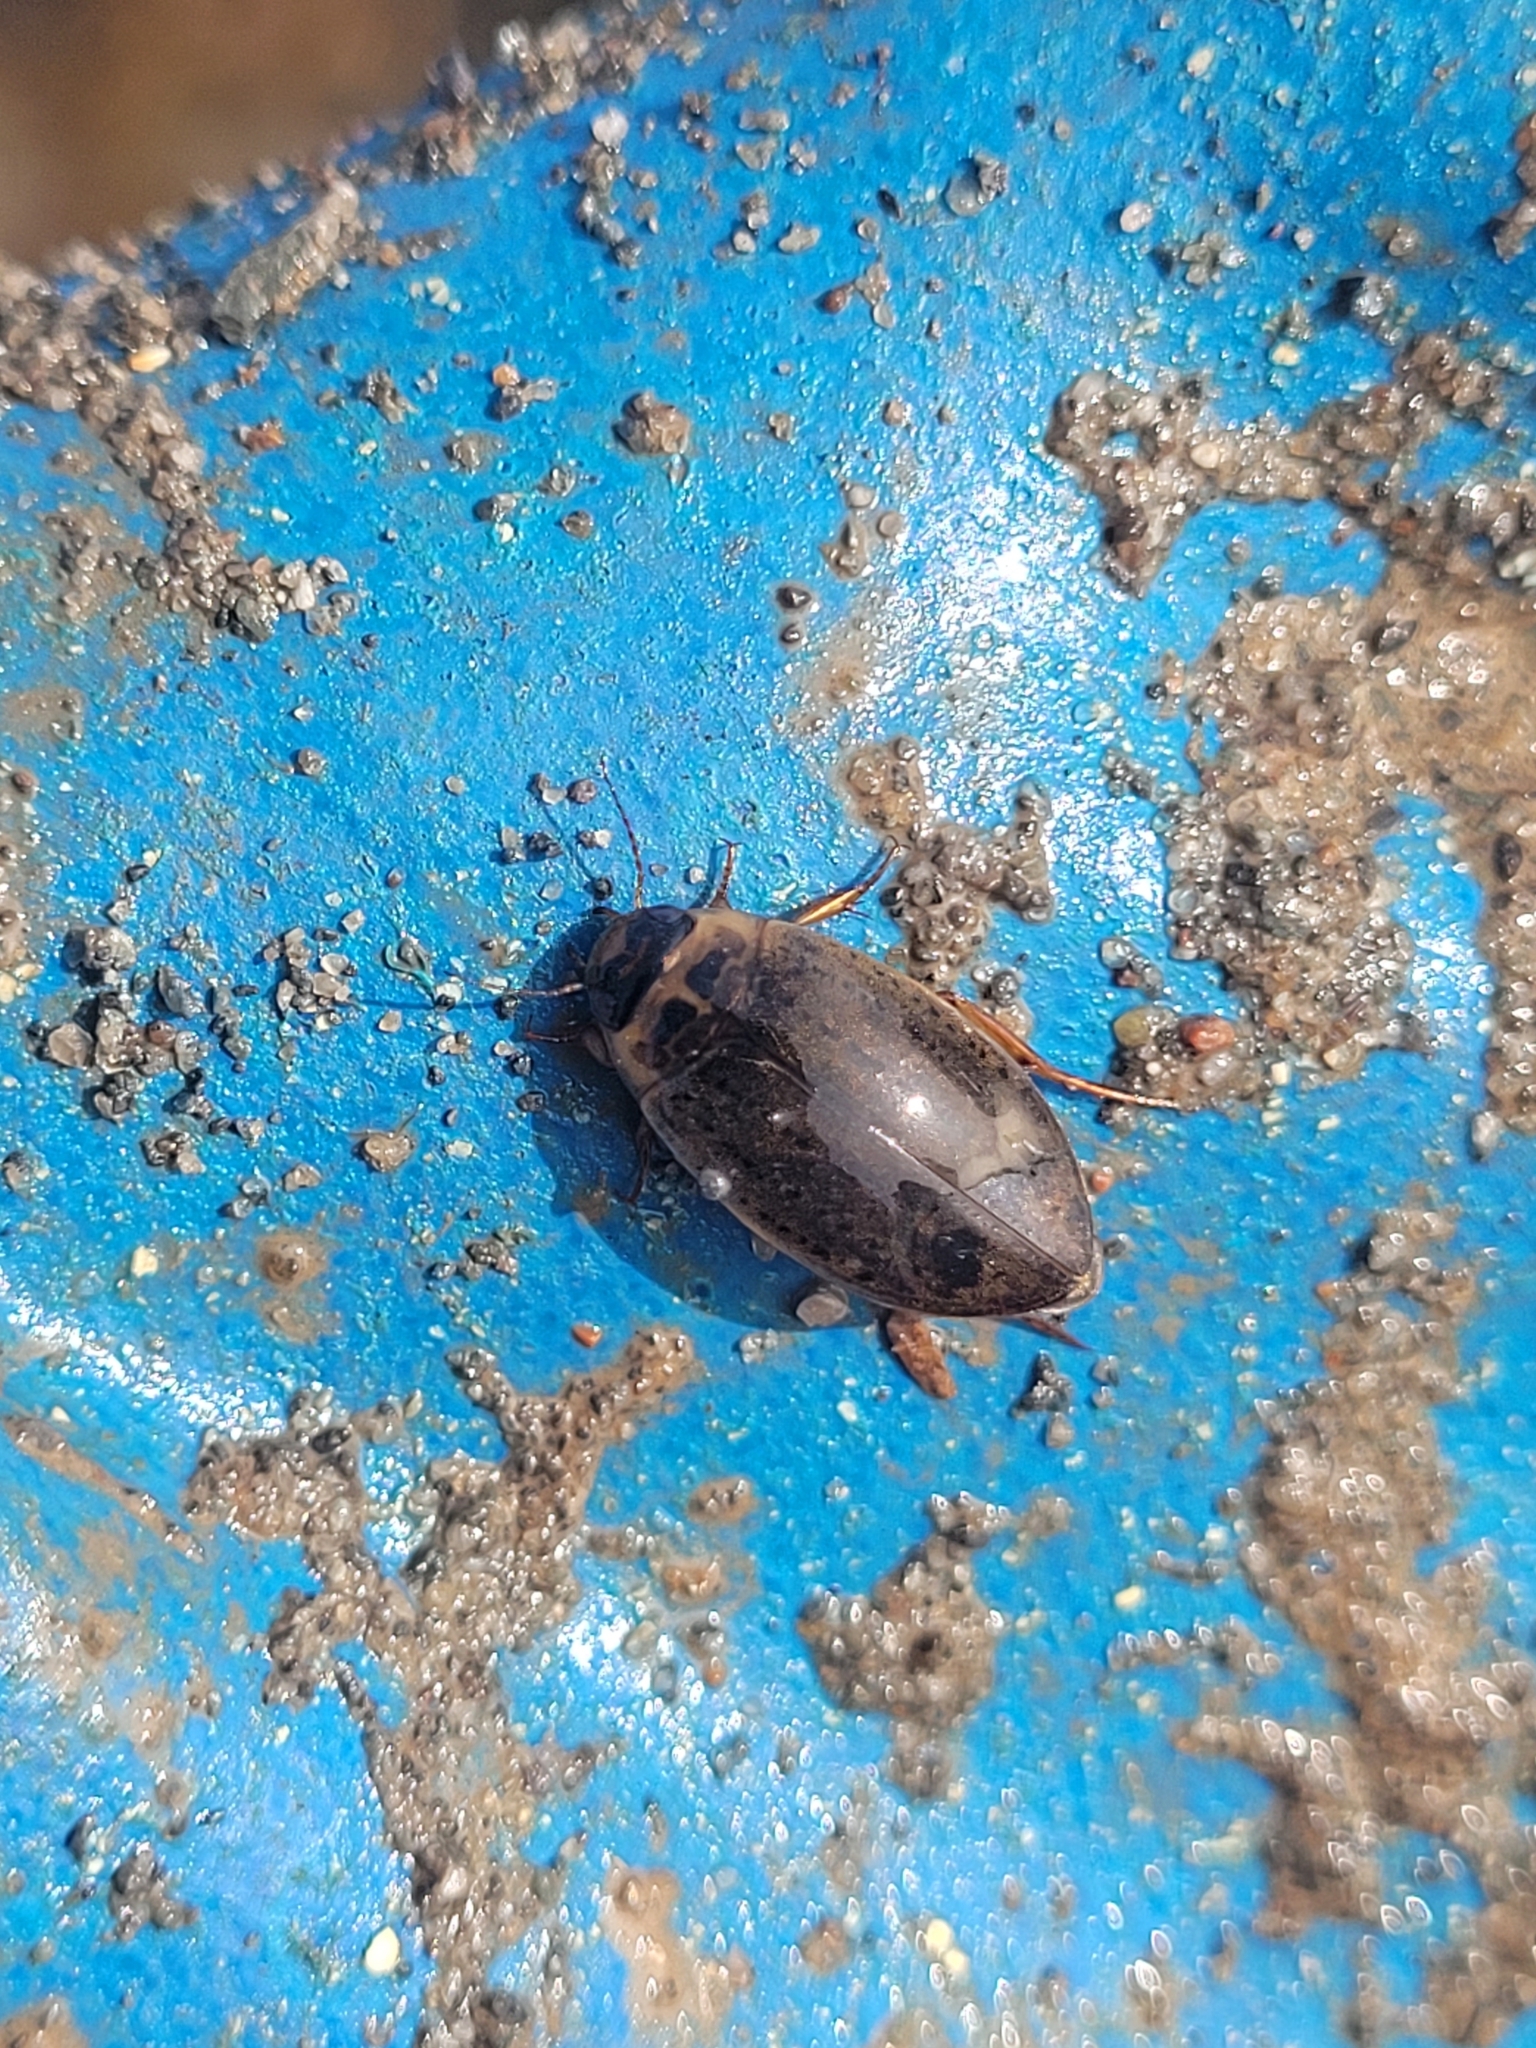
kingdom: Animalia
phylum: Arthropoda
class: Insecta
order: Coleoptera
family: Dytiscidae
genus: Rhantus
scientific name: Rhantus binotatus
